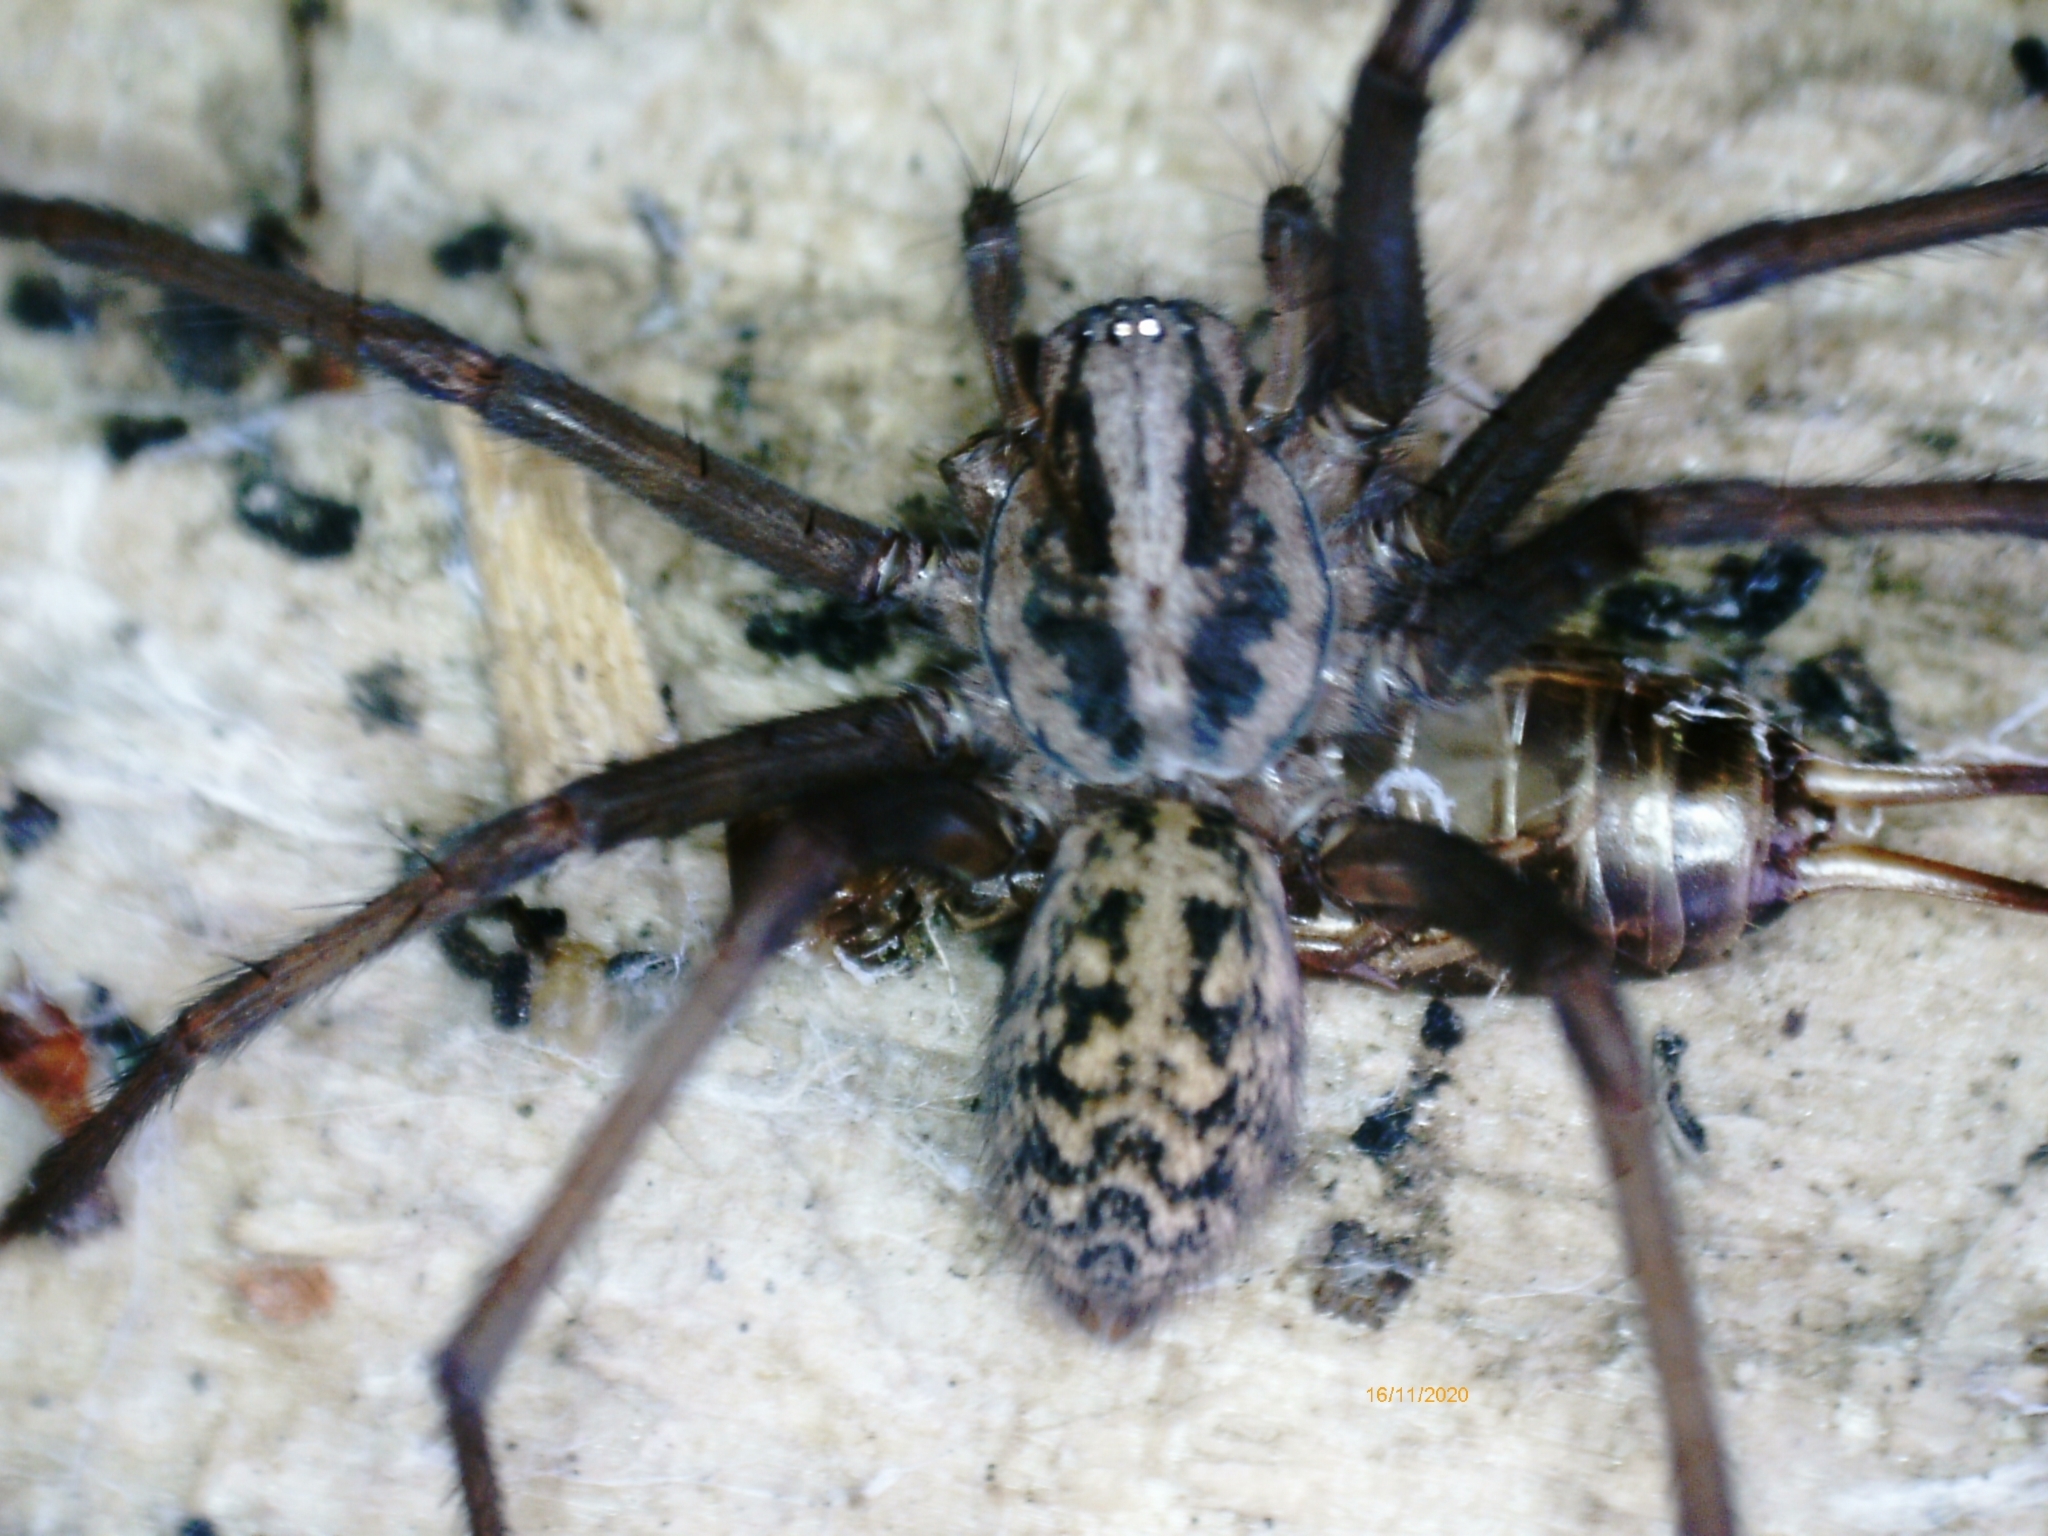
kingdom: Animalia
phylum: Arthropoda
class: Arachnida
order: Araneae
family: Agelenidae
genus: Eratigena
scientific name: Eratigena
